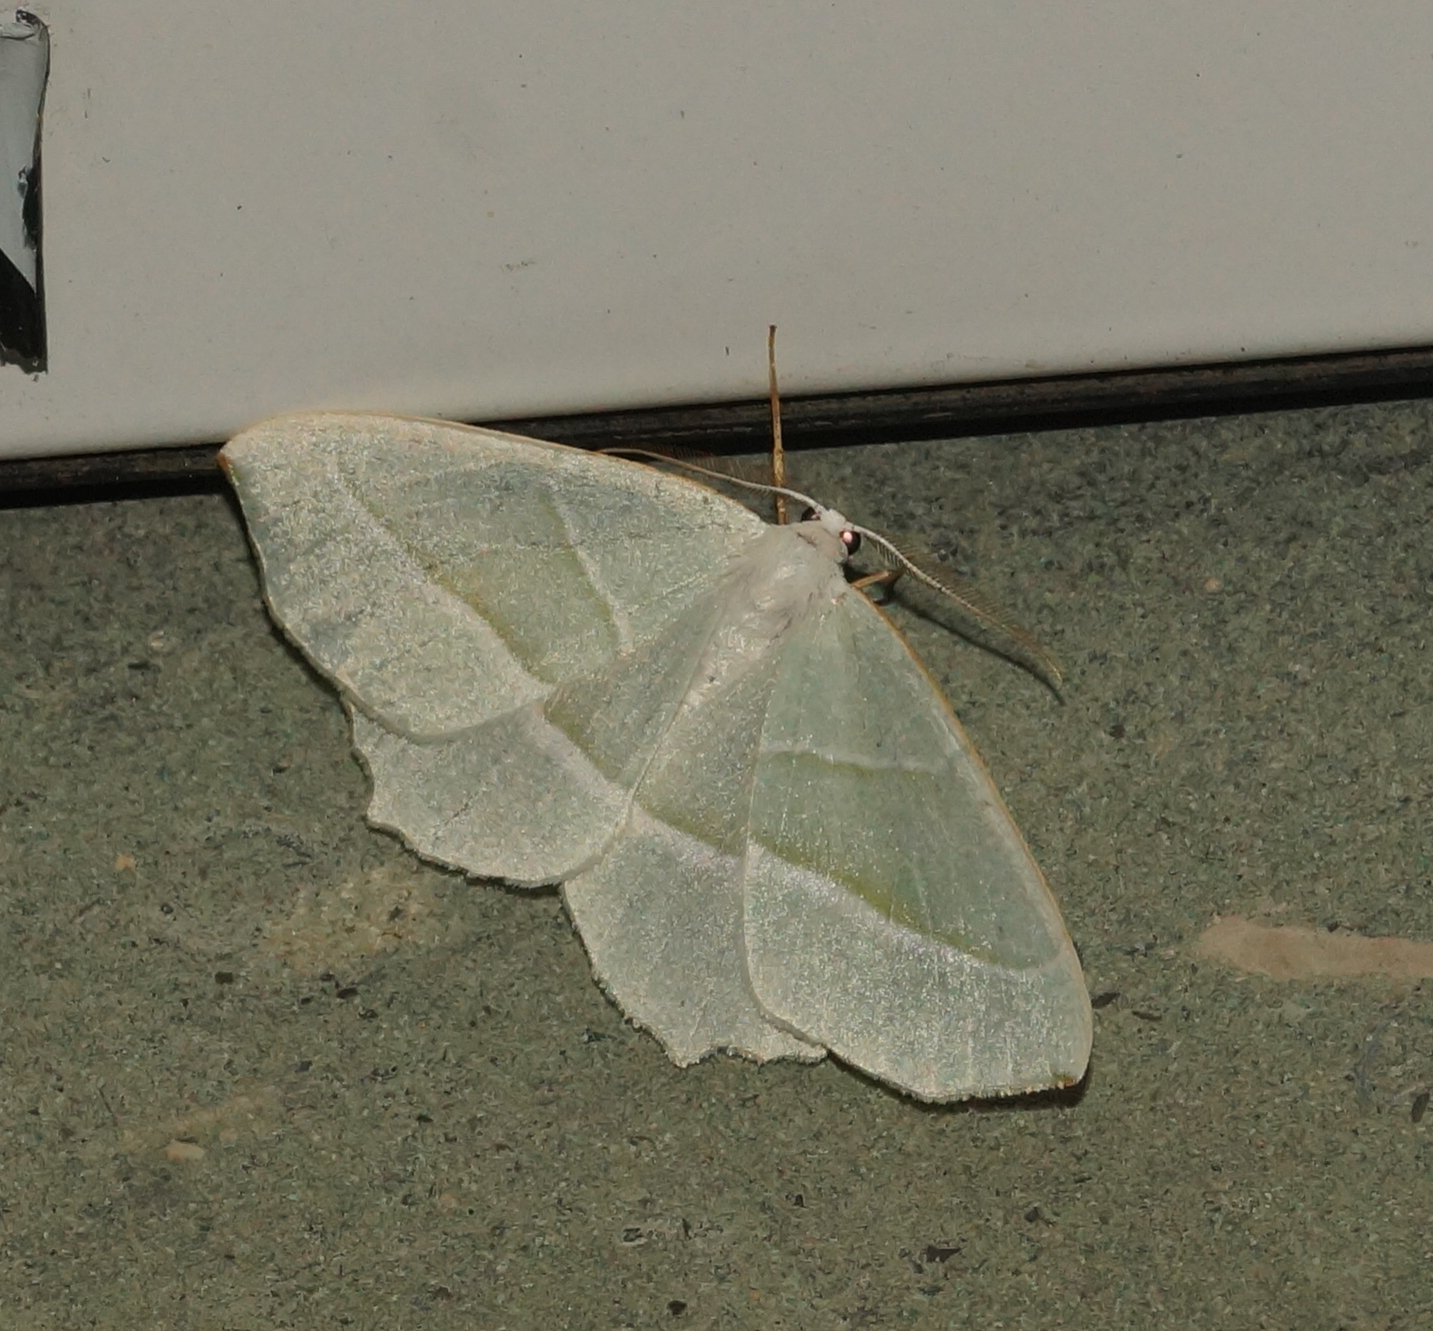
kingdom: Animalia
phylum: Arthropoda
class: Insecta
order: Lepidoptera
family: Geometridae
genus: Campaea
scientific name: Campaea margaritaria
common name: Light emerald
